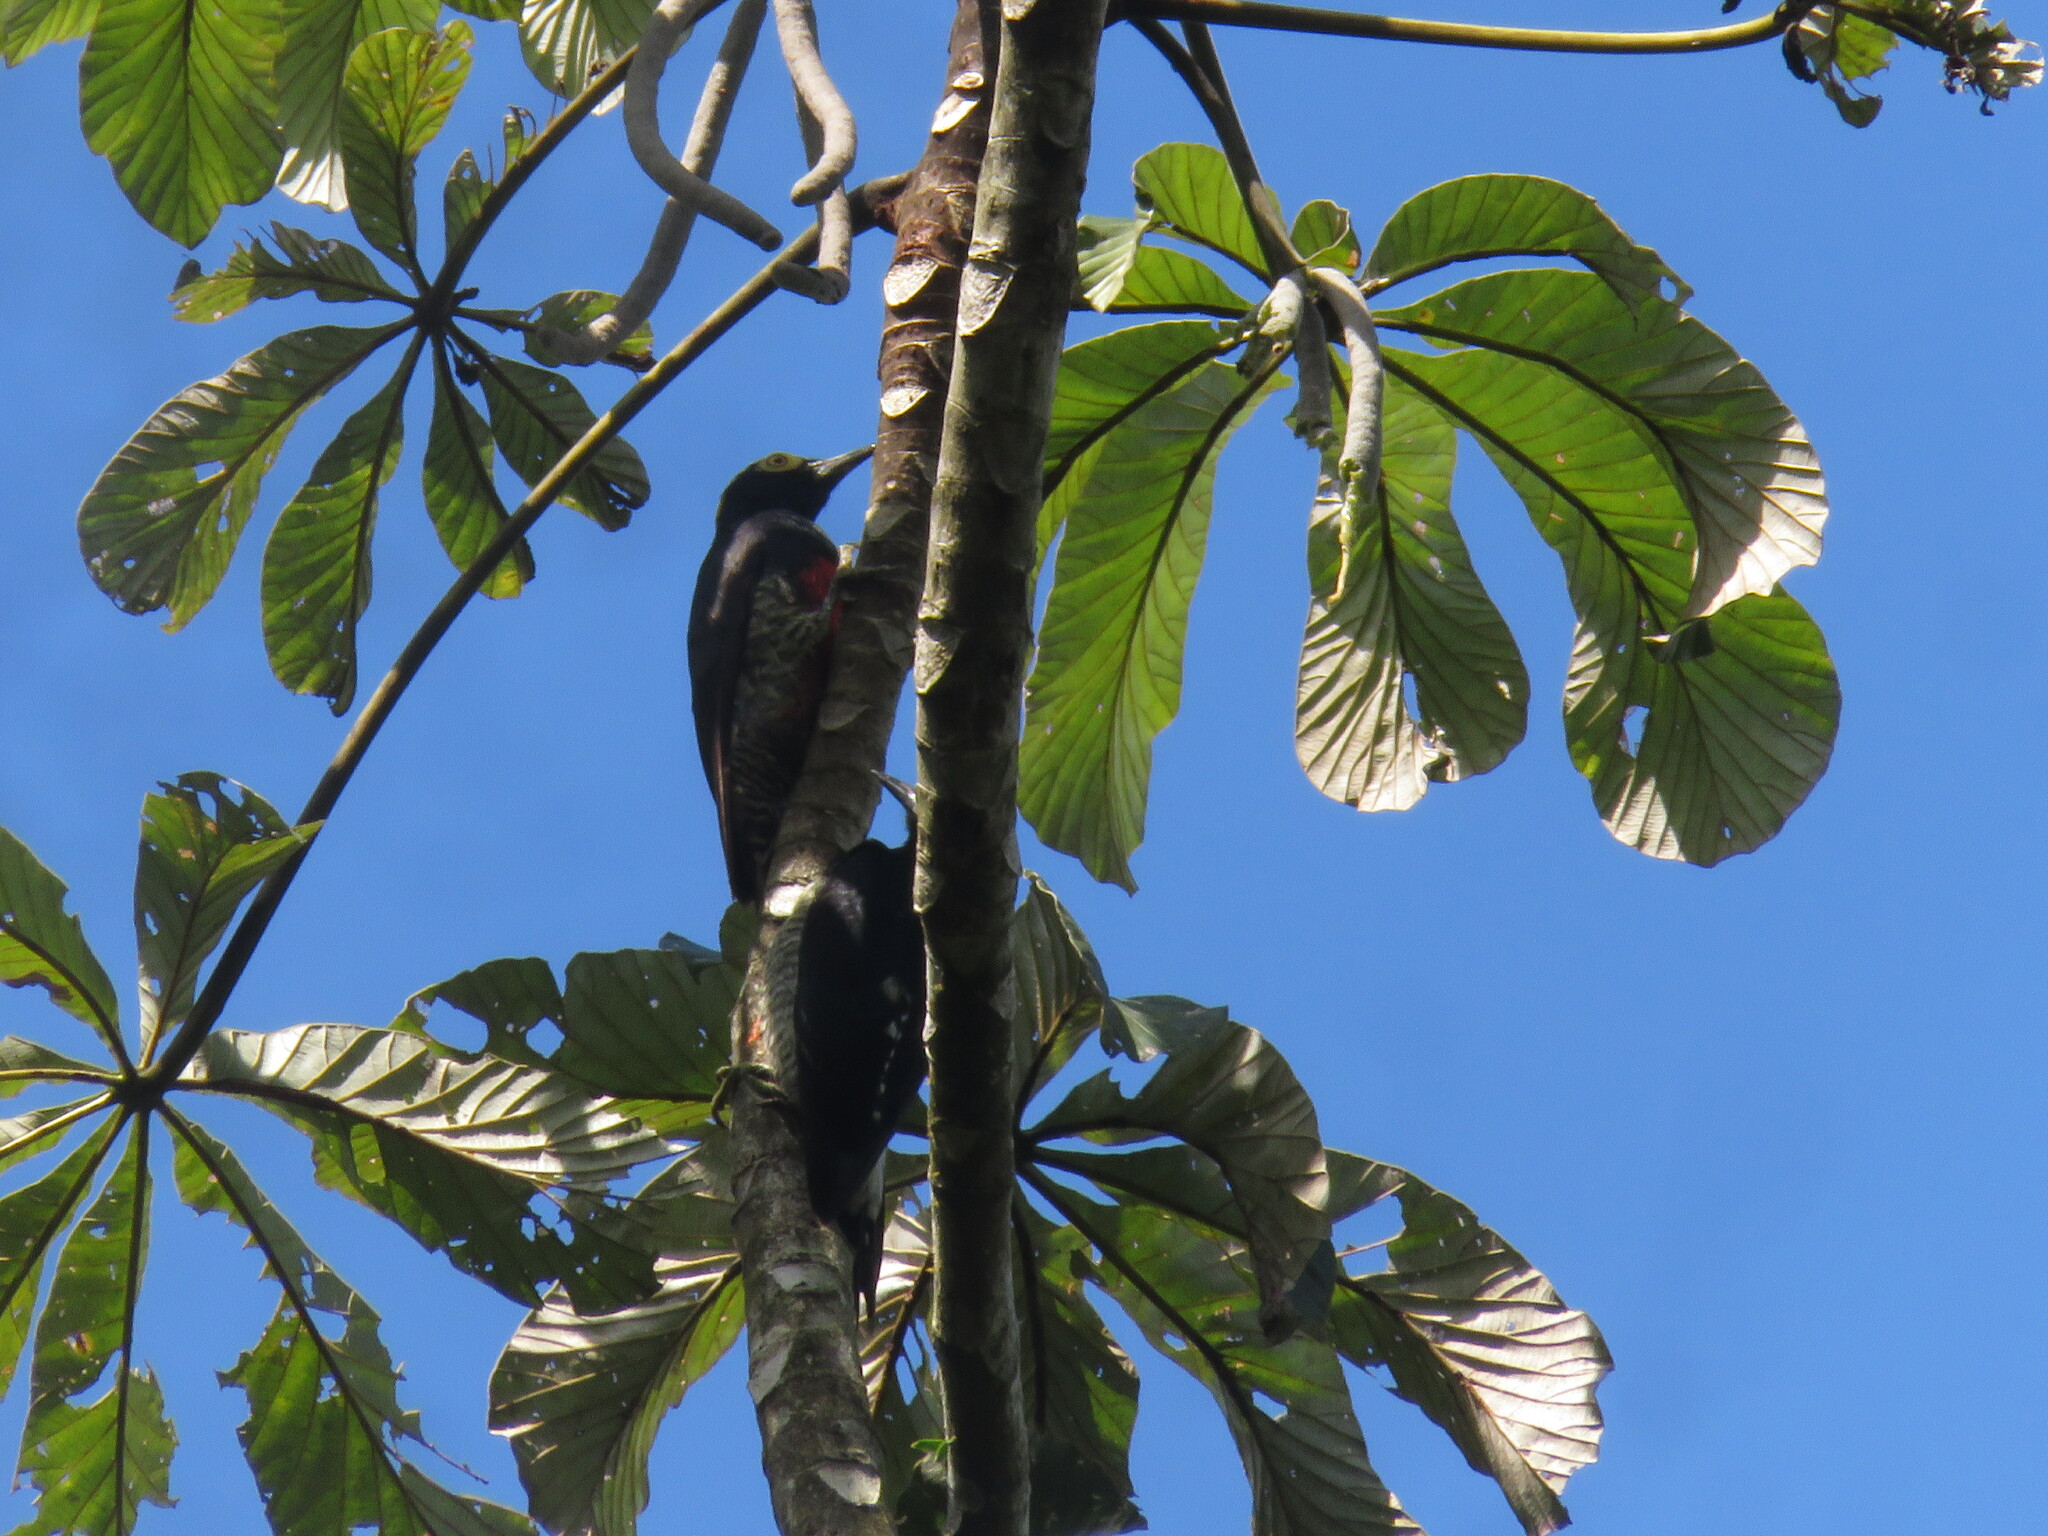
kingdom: Animalia
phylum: Chordata
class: Aves
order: Piciformes
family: Picidae
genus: Melanerpes
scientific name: Melanerpes cruentatus
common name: Yellow-tufted woodpecker
